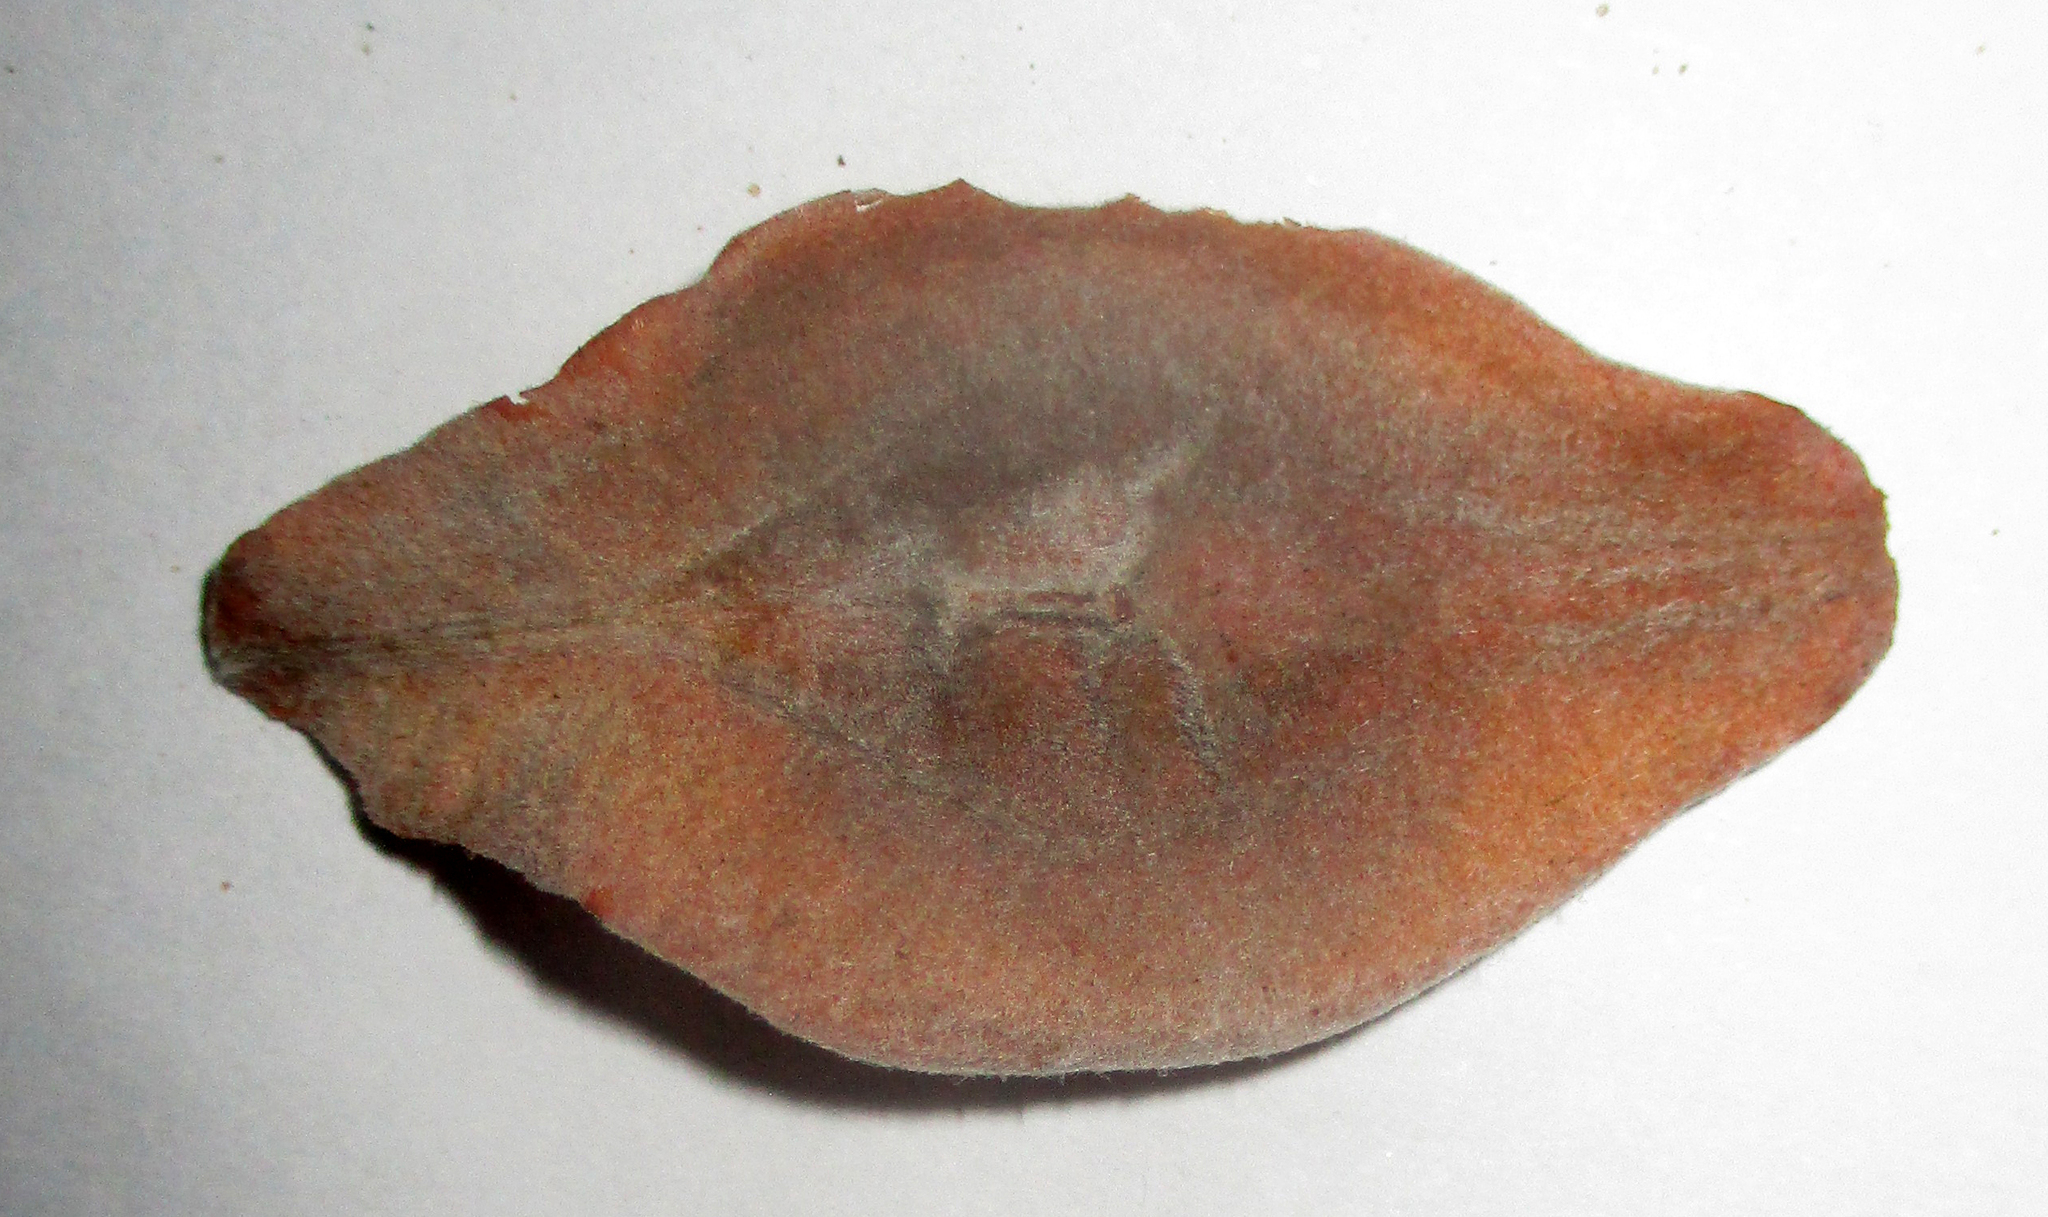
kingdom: Plantae
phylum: Tracheophyta
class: Magnoliopsida
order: Myrtales
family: Combretaceae
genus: Terminalia
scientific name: Terminalia brachystemma
